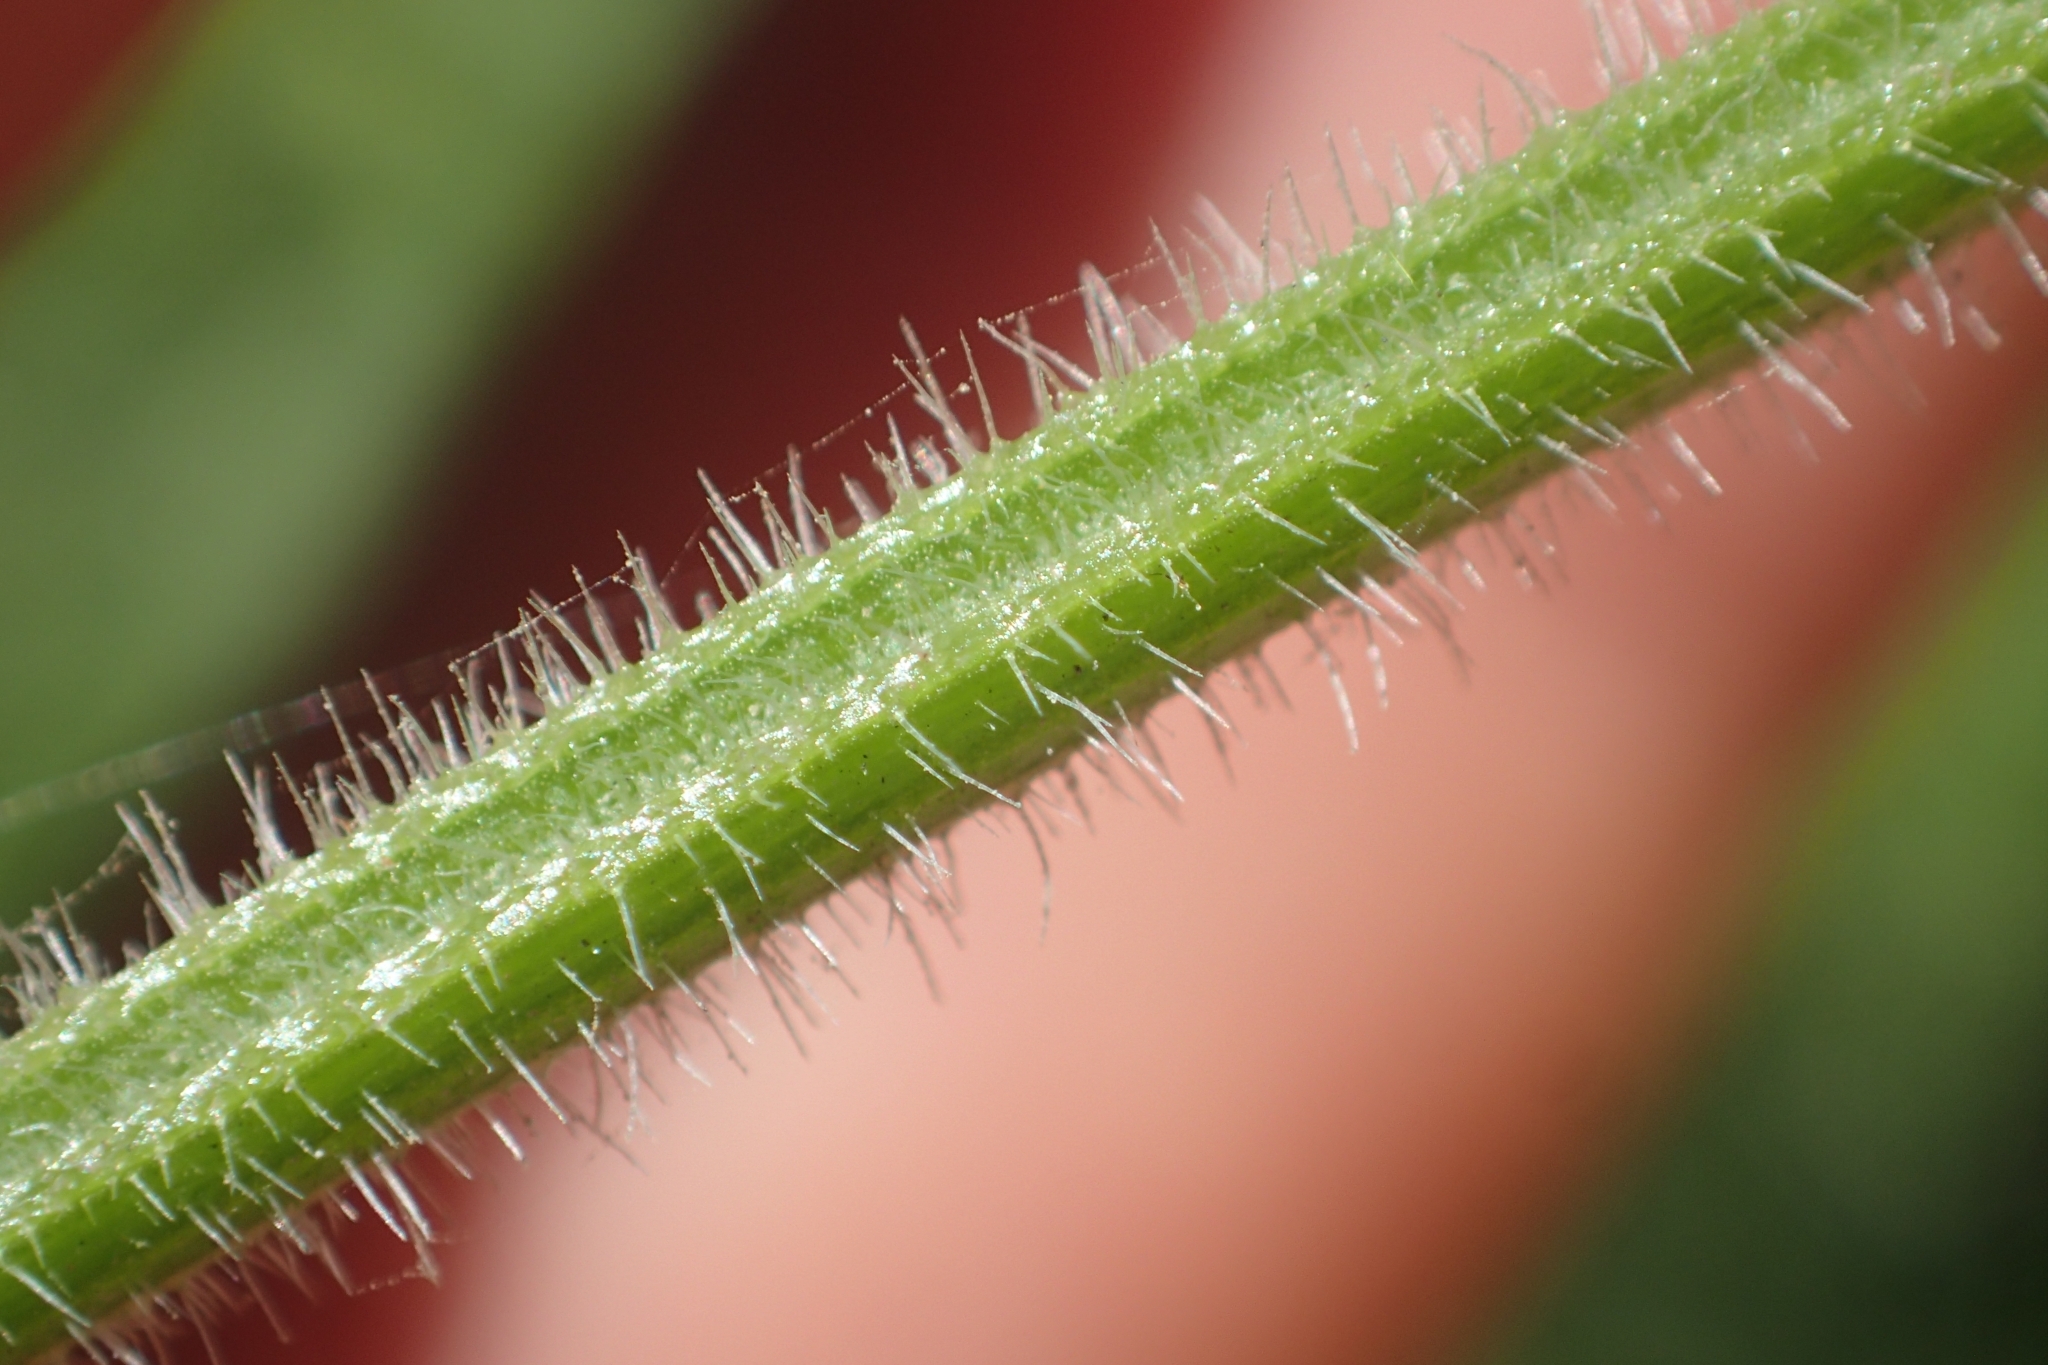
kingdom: Plantae
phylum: Tracheophyta
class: Magnoliopsida
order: Lamiales
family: Verbenaceae
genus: Verbena
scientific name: Verbena incompta
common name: Purpletop vervain
